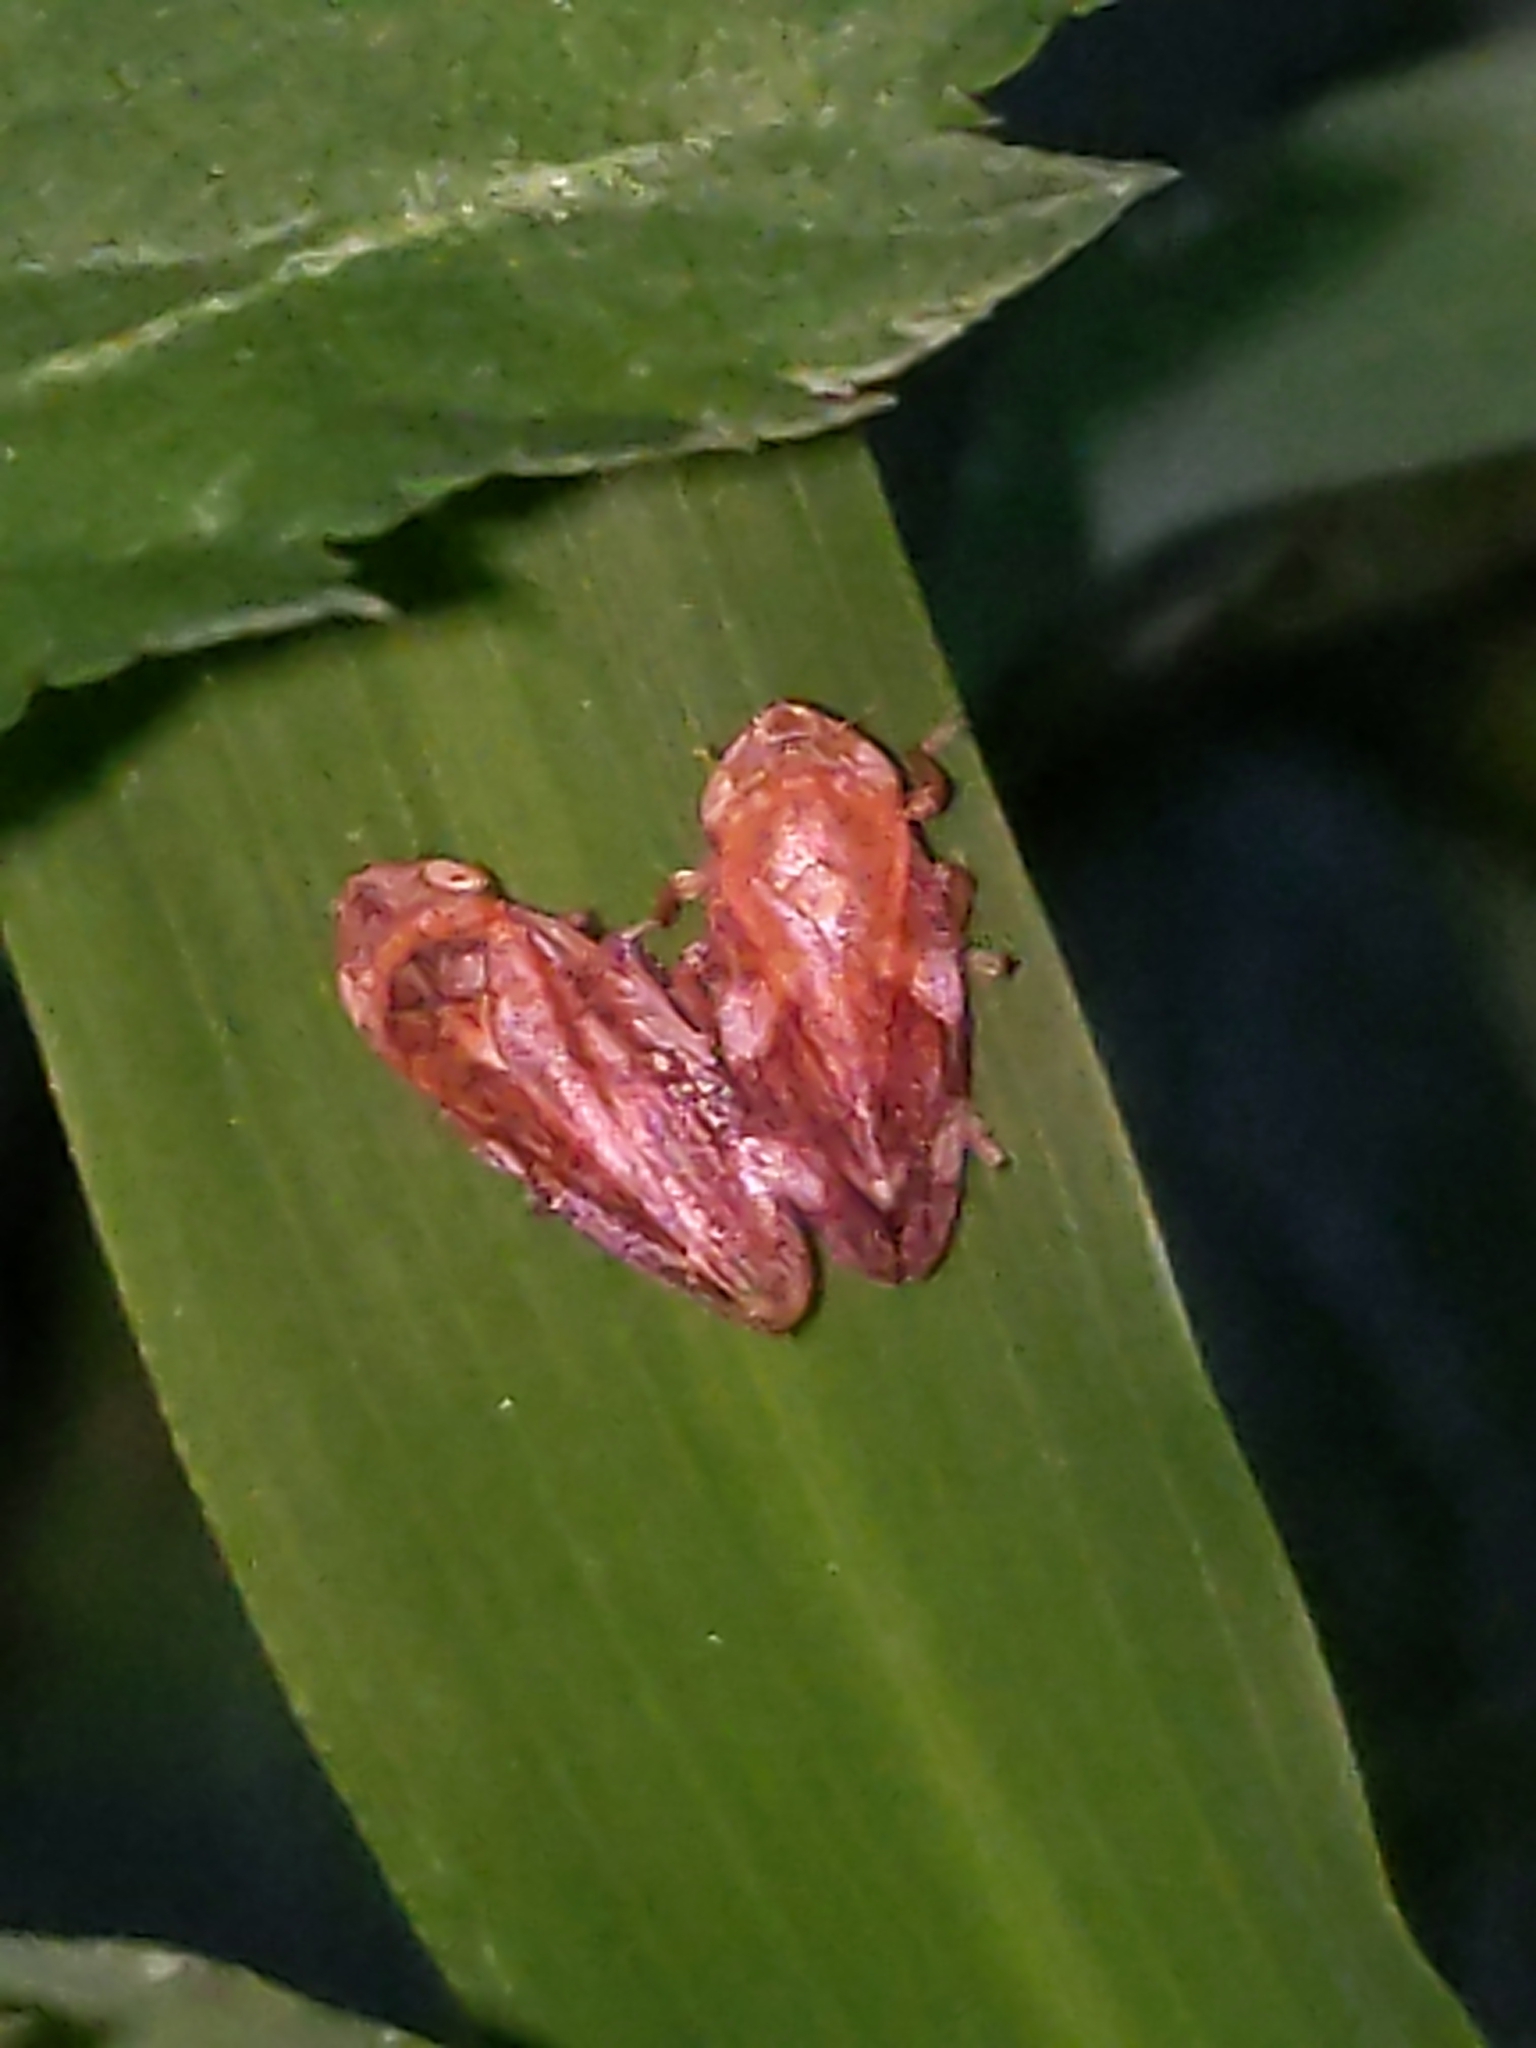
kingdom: Animalia
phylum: Arthropoda
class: Insecta
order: Hemiptera
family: Aphrophoridae
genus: Philaenus
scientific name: Philaenus spumarius
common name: Meadow spittlebug
